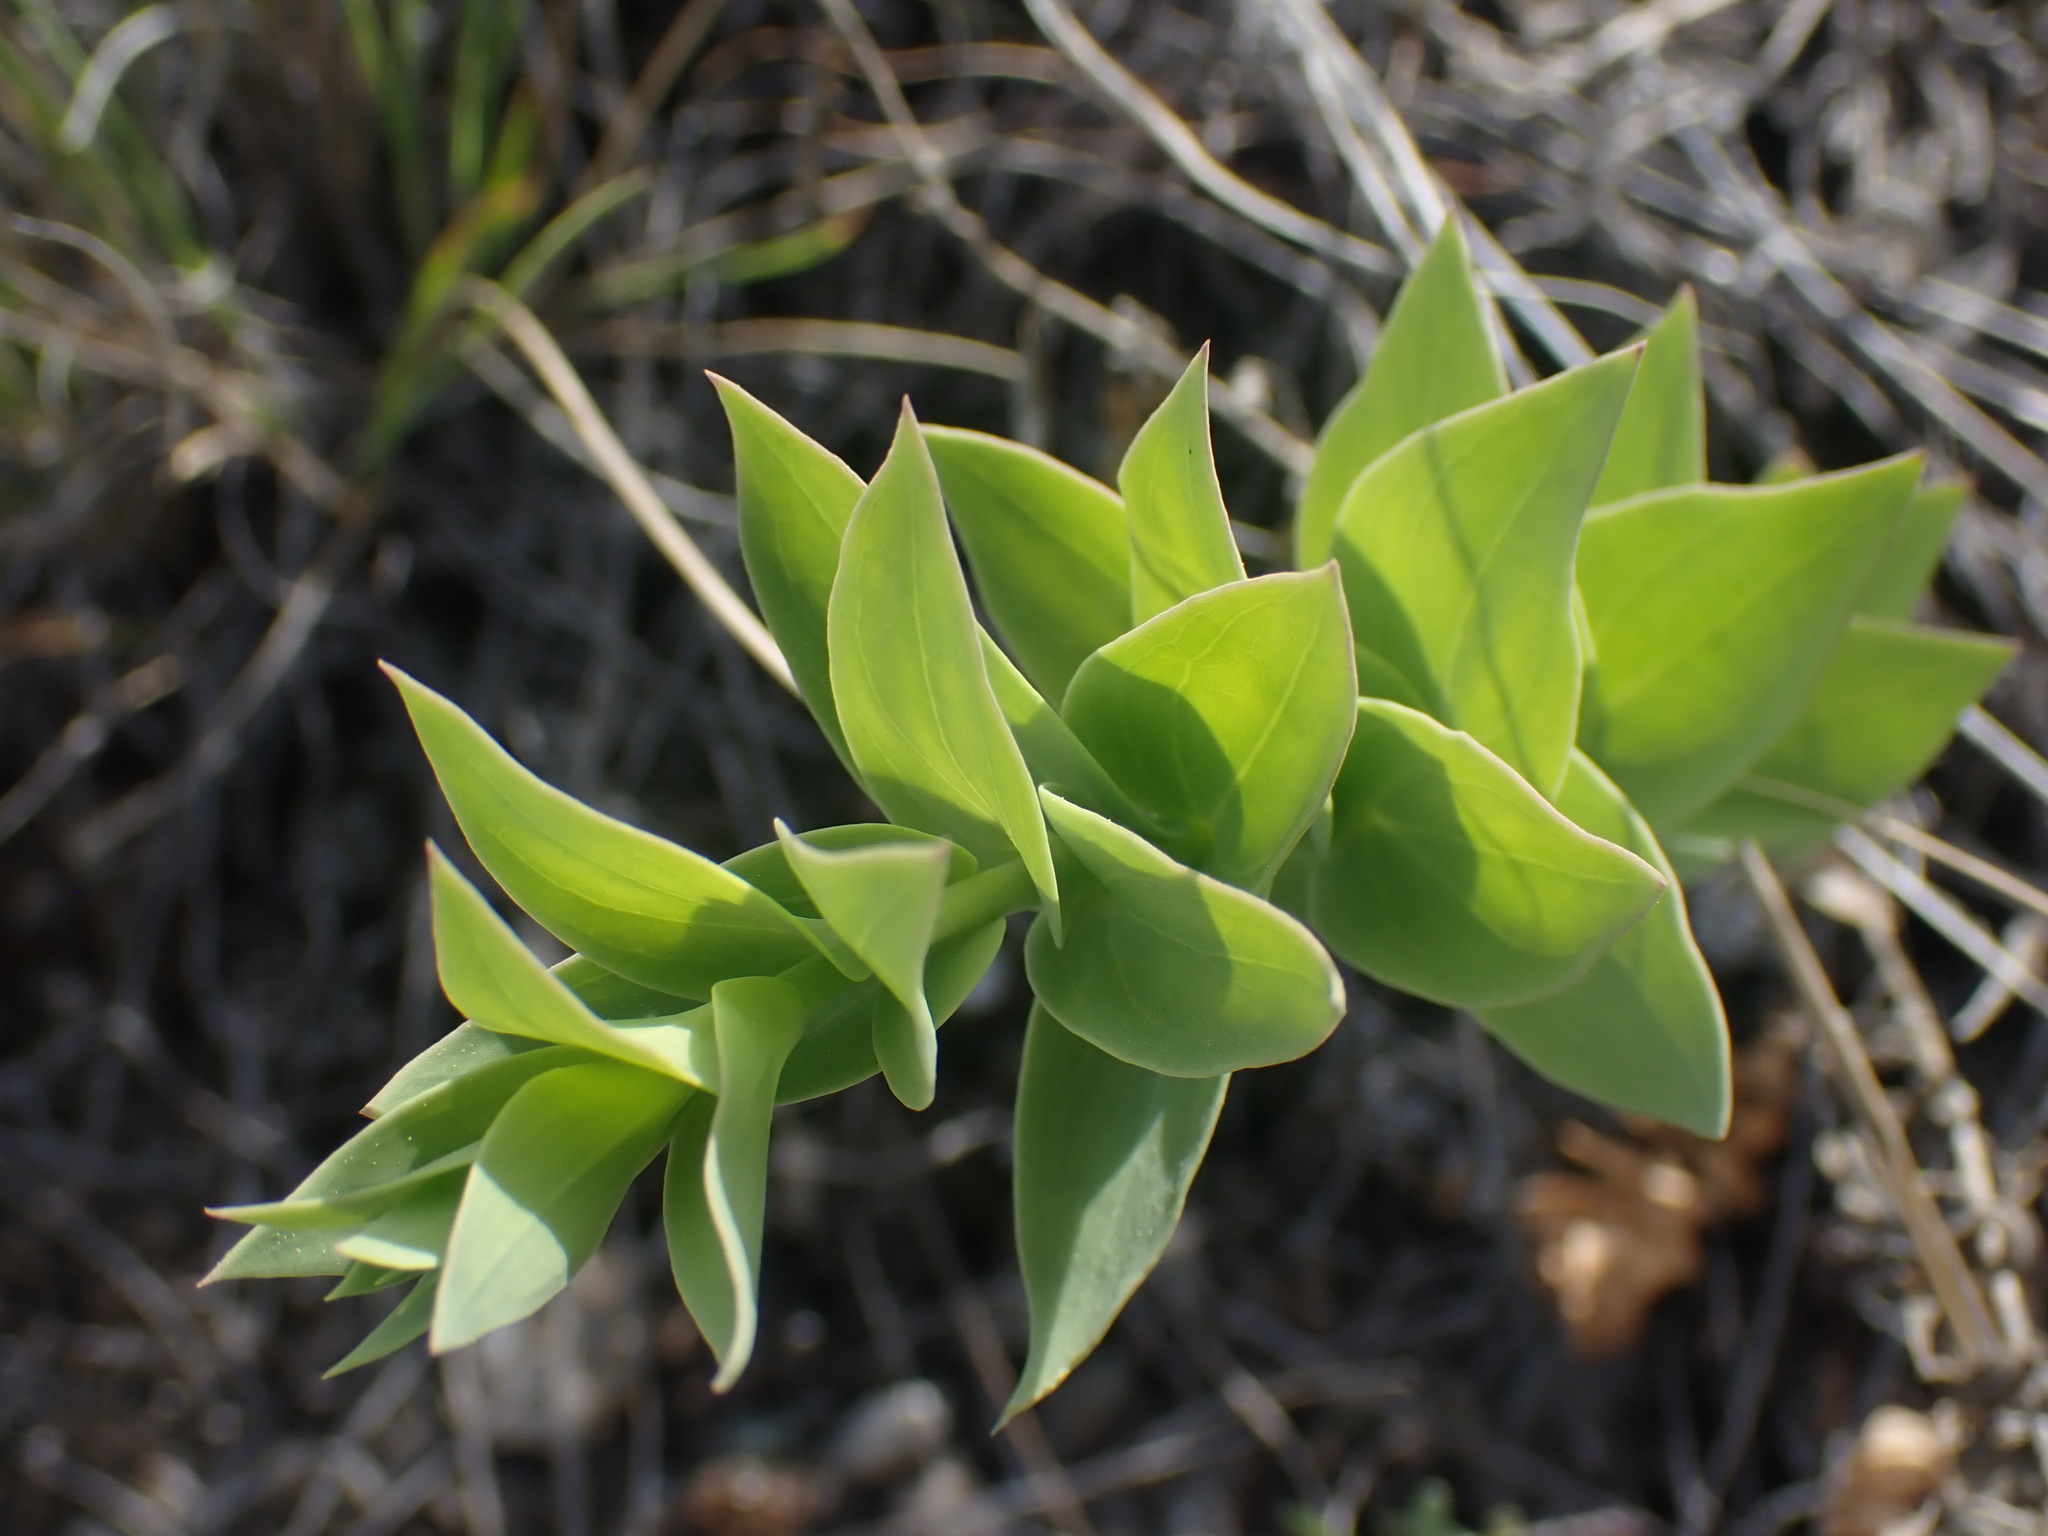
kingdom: Plantae
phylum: Tracheophyta
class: Magnoliopsida
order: Lamiales
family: Plantaginaceae
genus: Linaria
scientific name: Linaria dalmatica
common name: Dalmatian toadflax
